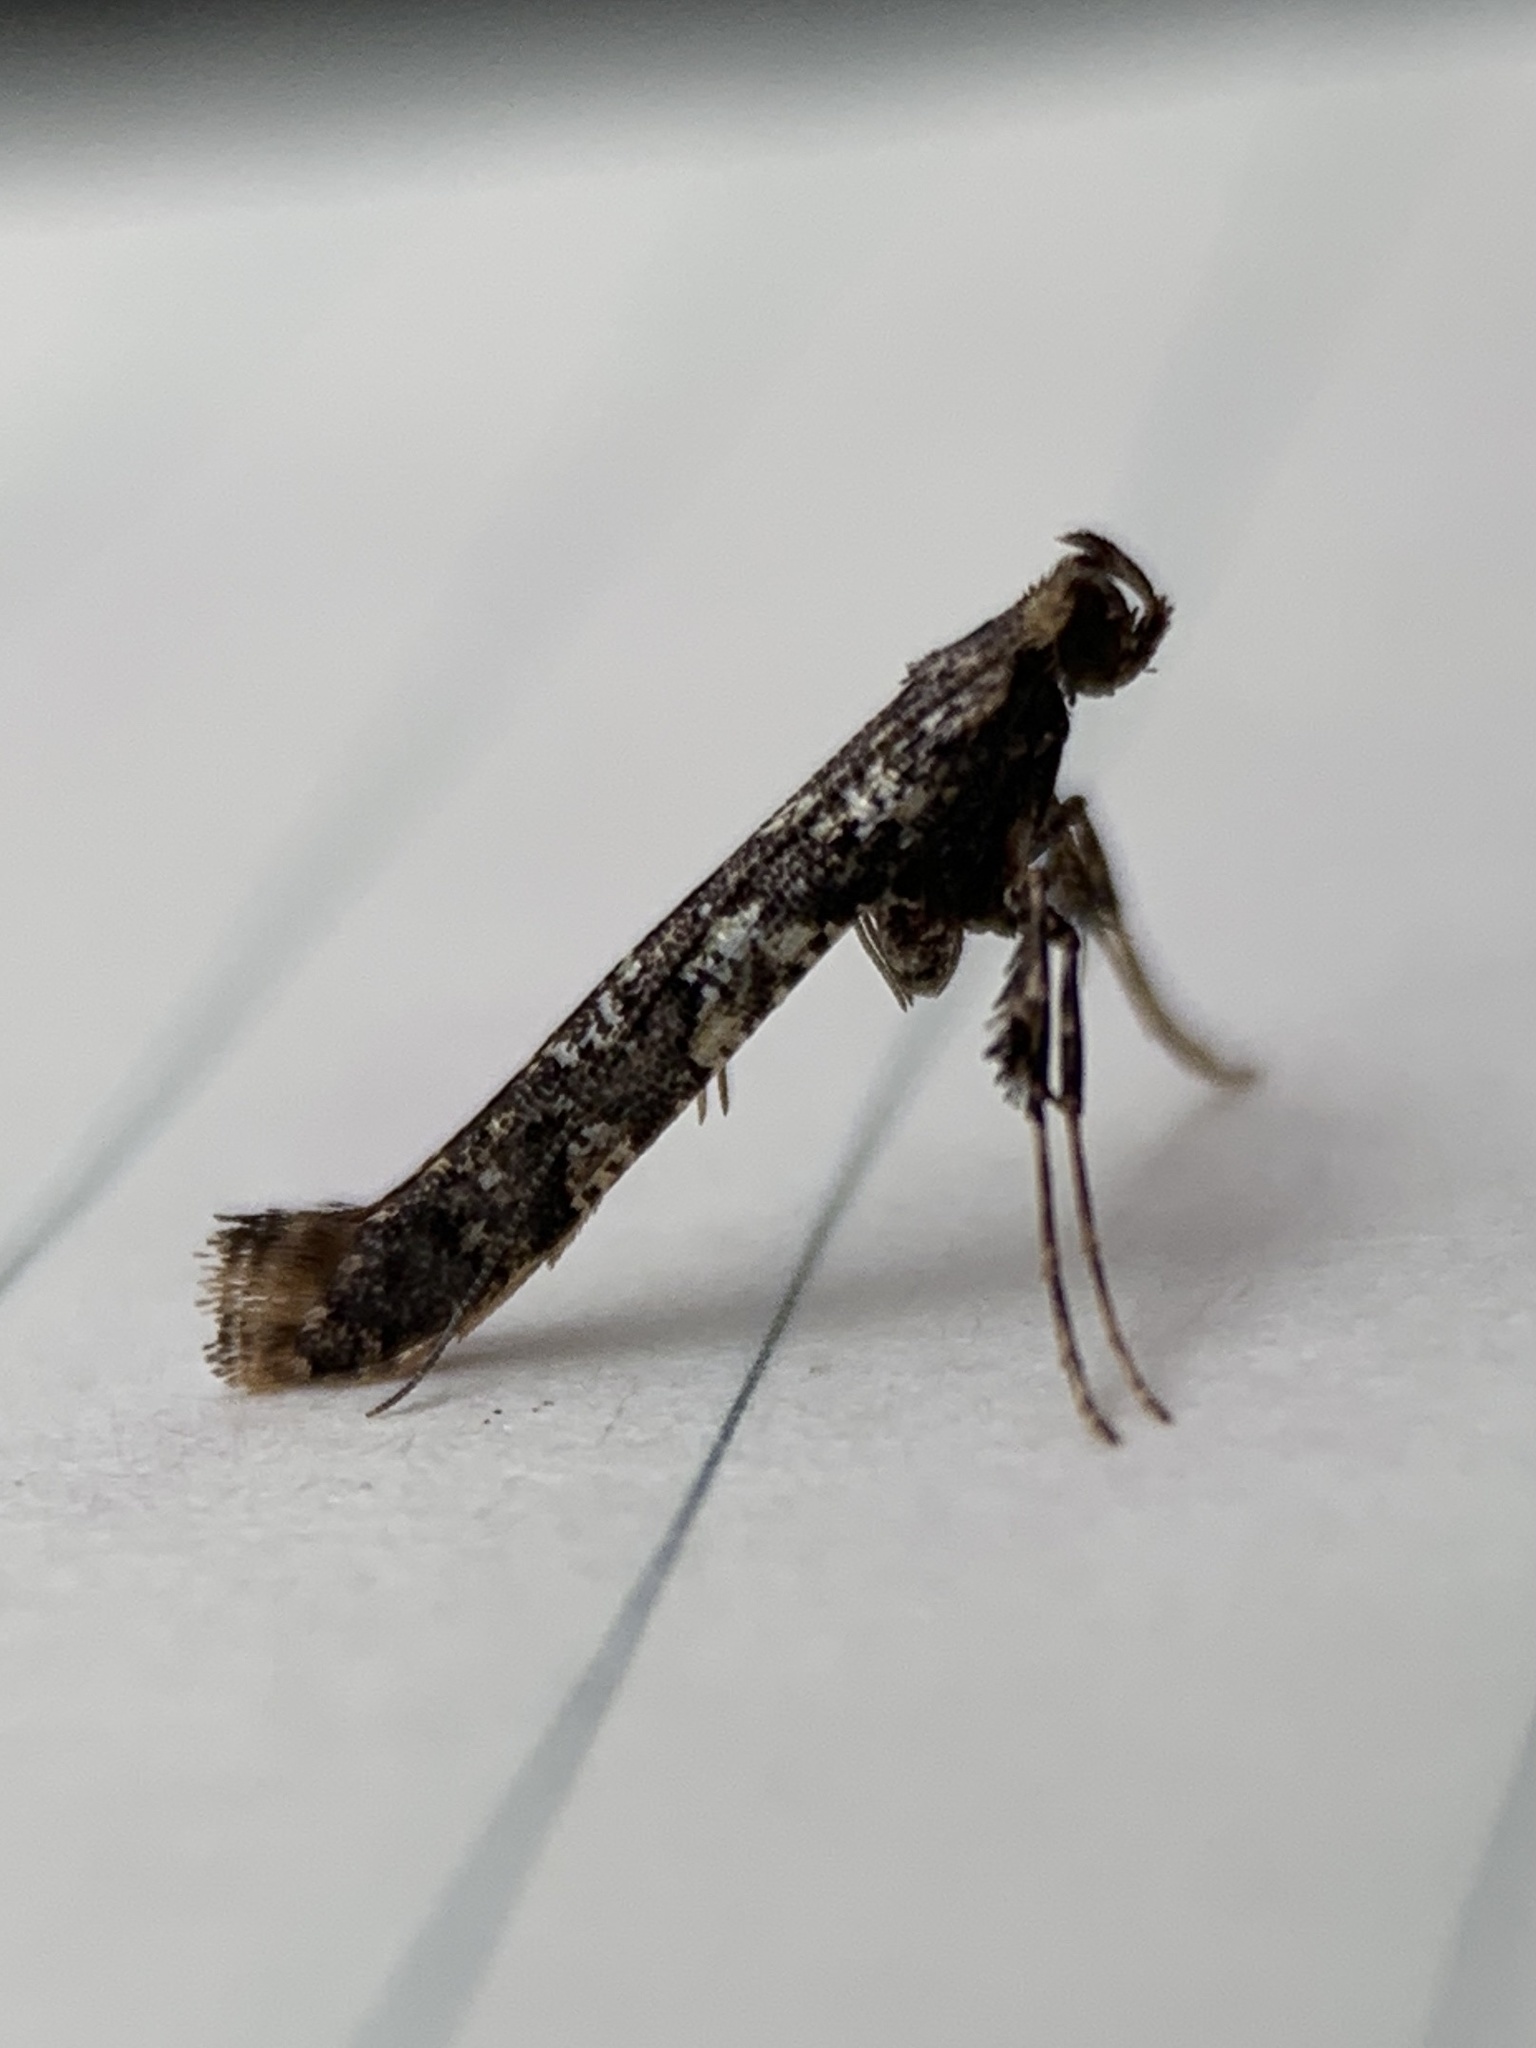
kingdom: Animalia
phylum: Arthropoda
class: Insecta
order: Lepidoptera
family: Gracillariidae
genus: Caloptilia
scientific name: Caloptilia serotinella
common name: Cherry leafroller moth
